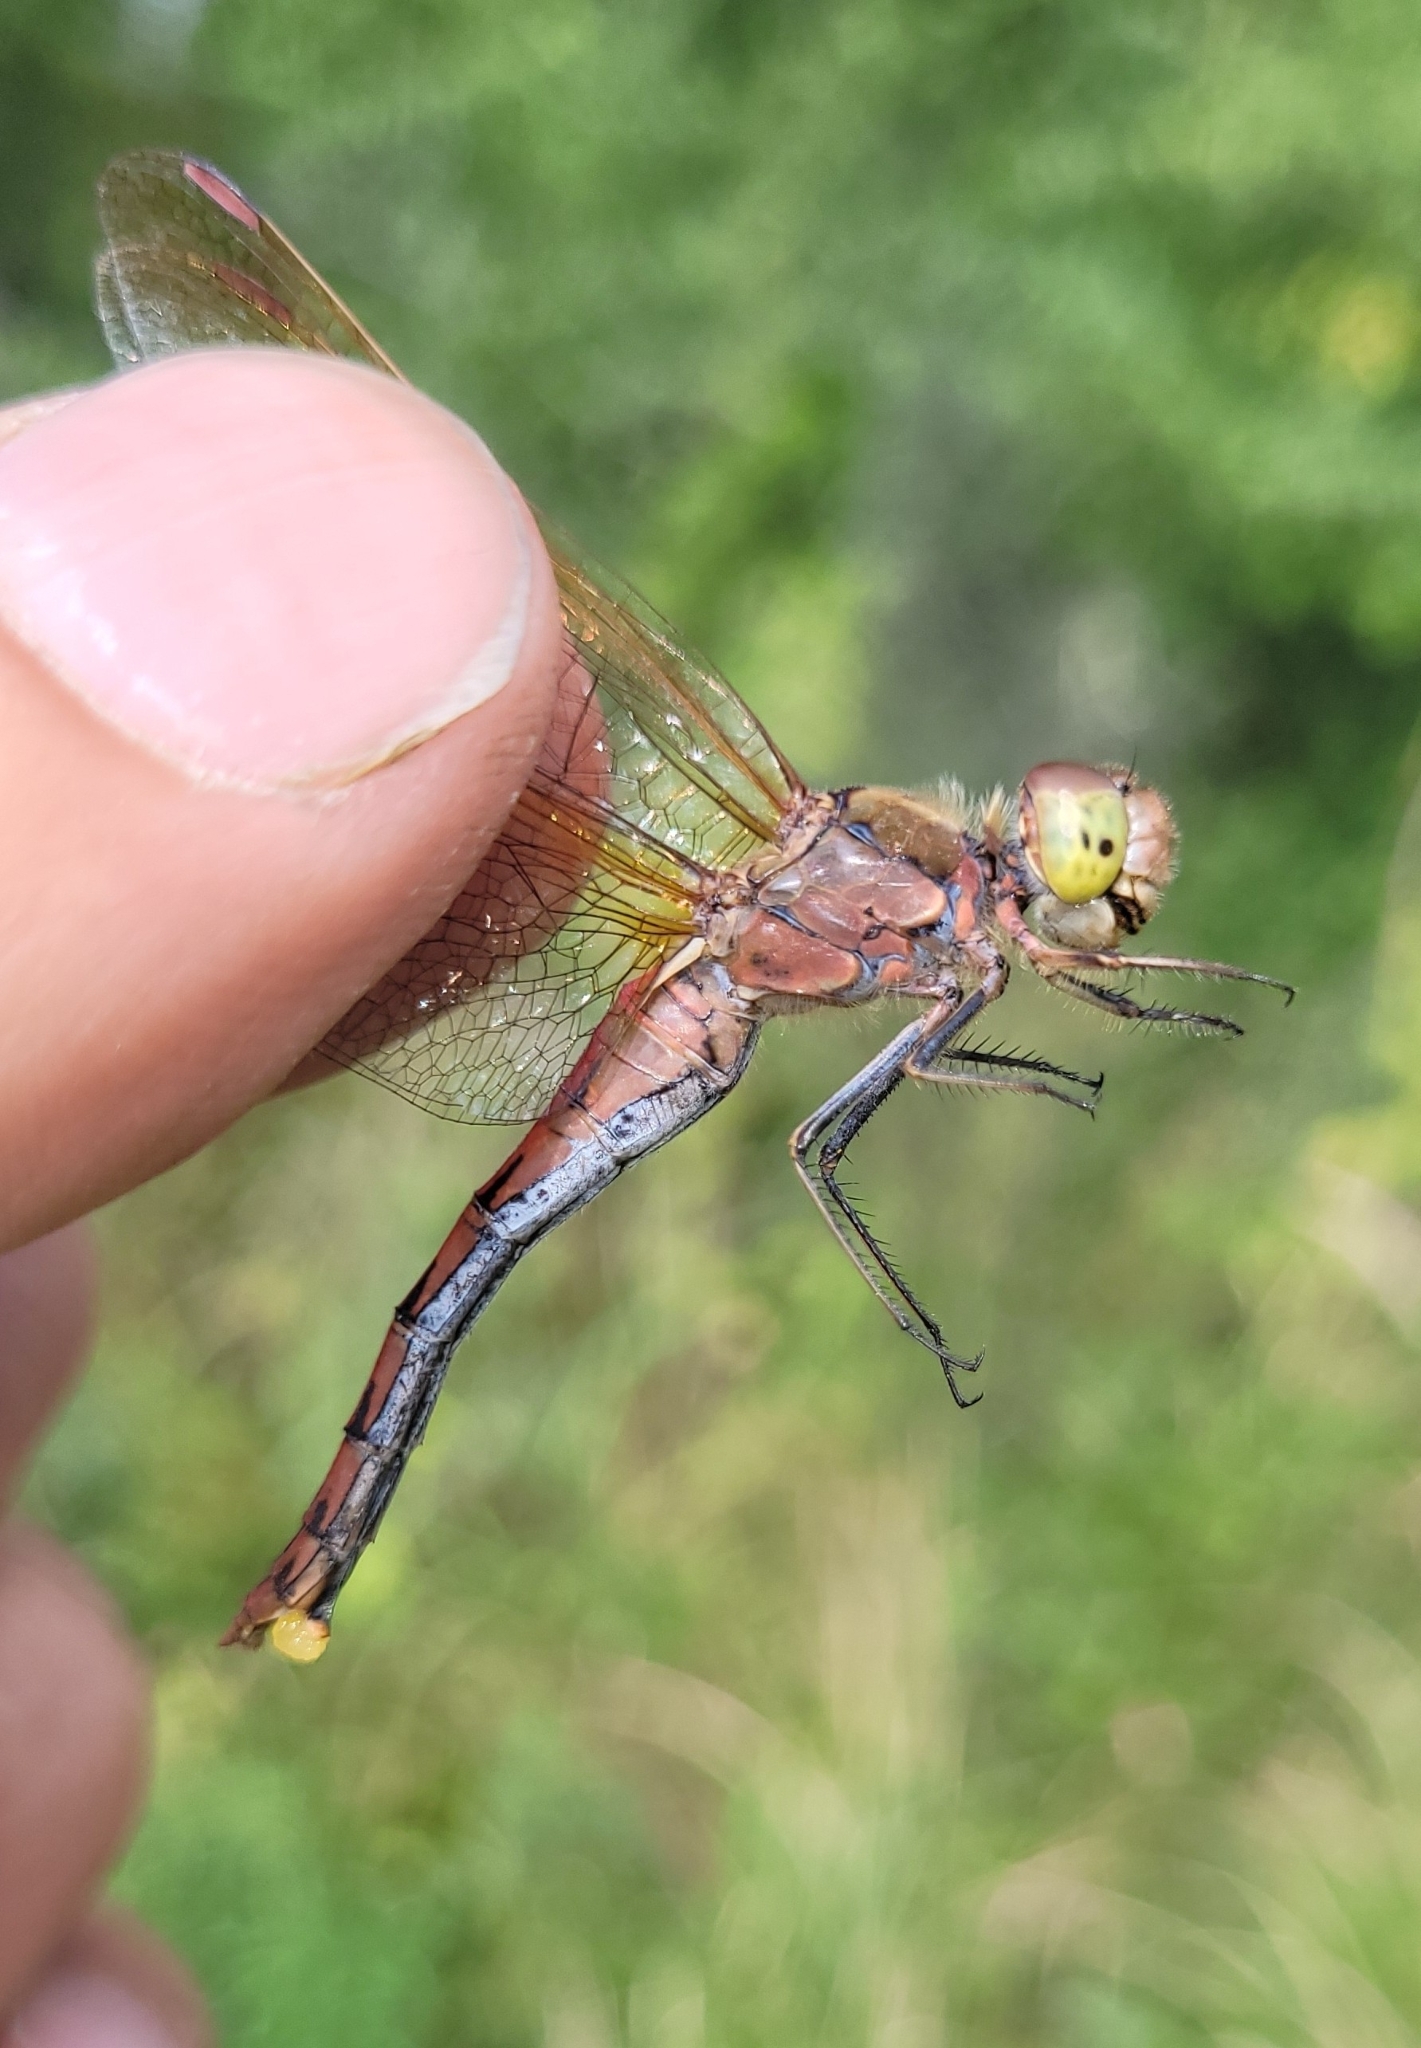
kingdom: Animalia
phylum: Arthropoda
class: Insecta
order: Odonata
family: Libellulidae
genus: Sympetrum
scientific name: Sympetrum striolatum
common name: Common darter
